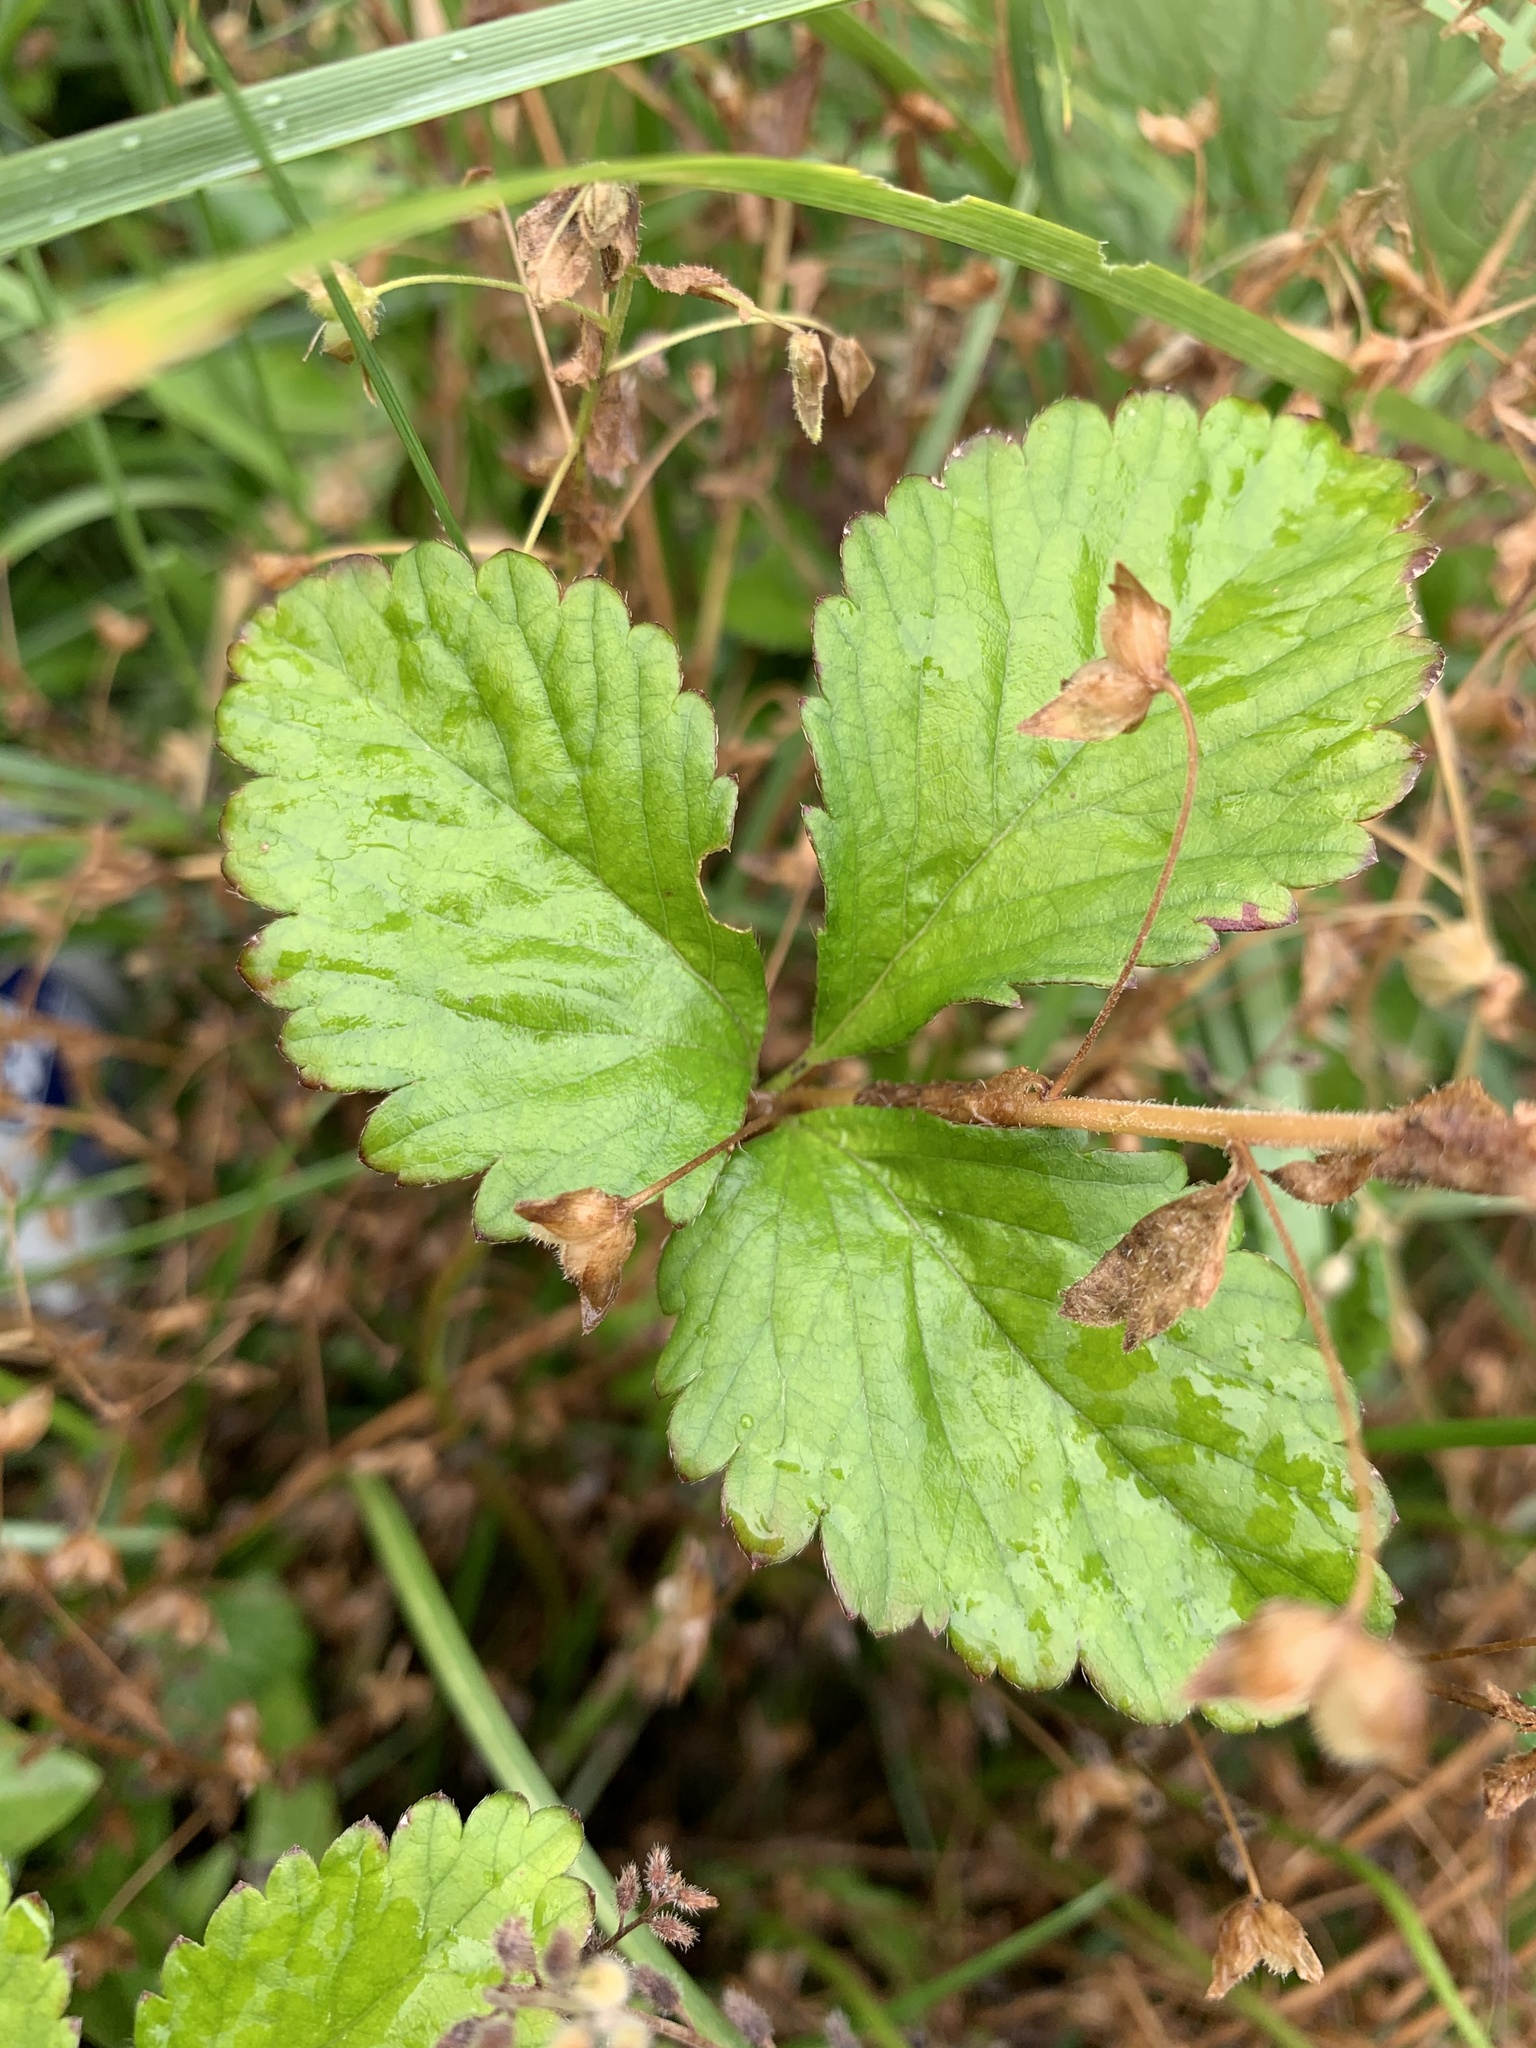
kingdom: Plantae
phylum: Tracheophyta
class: Magnoliopsida
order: Rosales
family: Rosaceae
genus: Potentilla
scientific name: Potentilla indica
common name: Yellow-flowered strawberry
